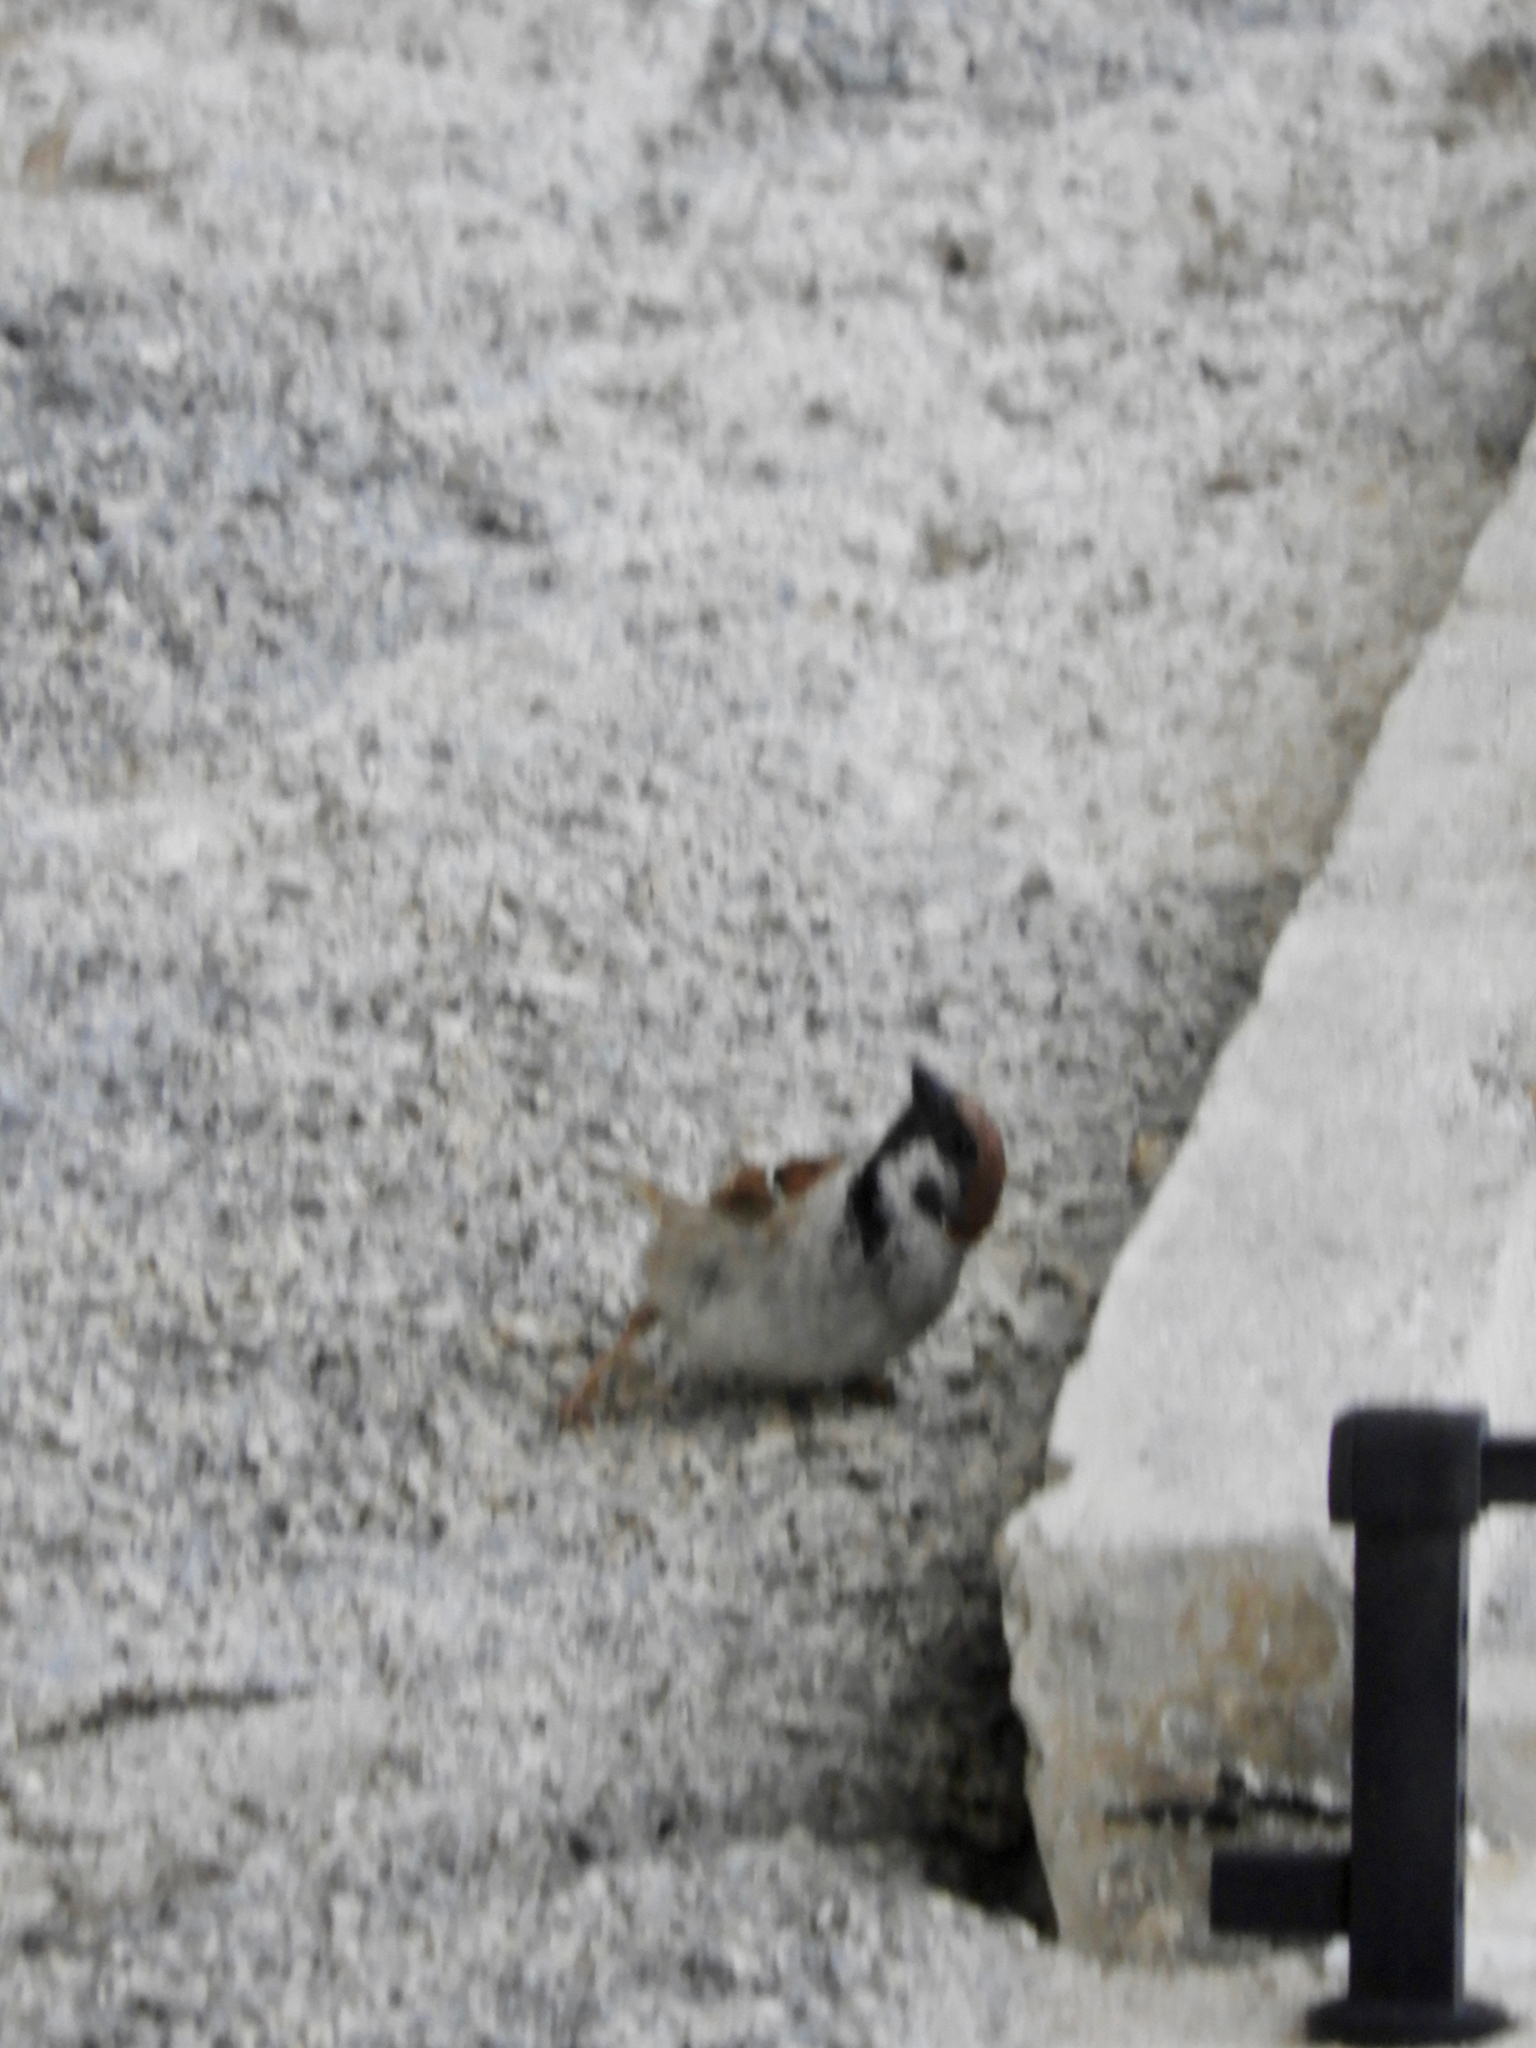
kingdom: Animalia
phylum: Chordata
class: Aves
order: Passeriformes
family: Passeridae
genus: Passer
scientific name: Passer montanus
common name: Eurasian tree sparrow
